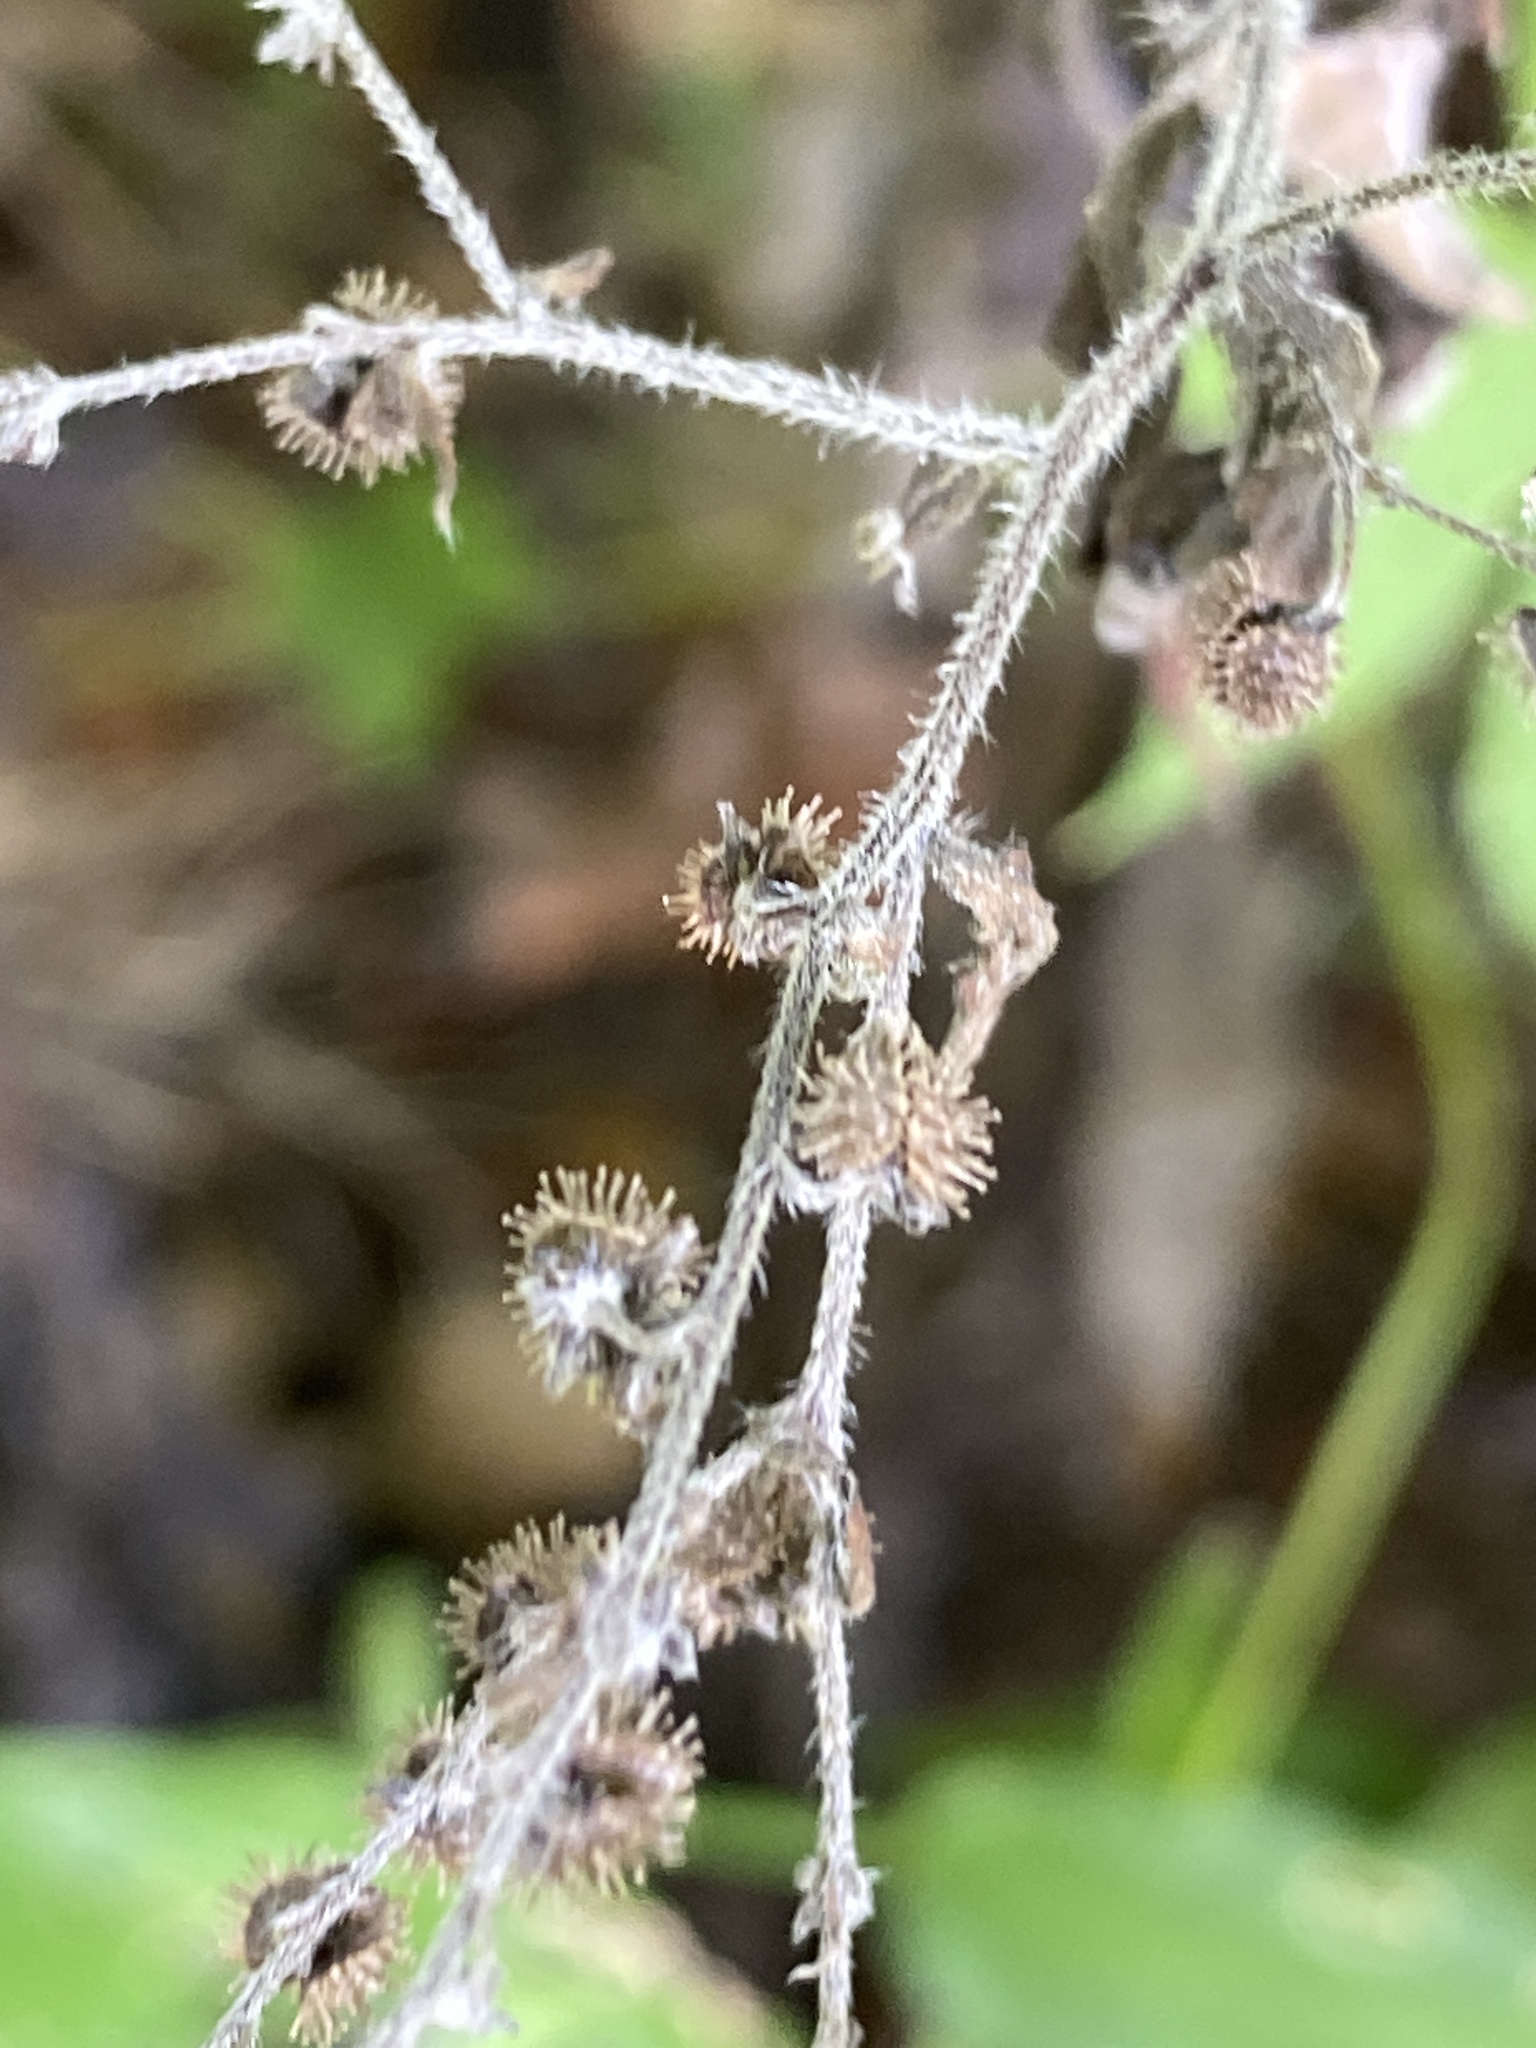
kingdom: Plantae
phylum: Tracheophyta
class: Magnoliopsida
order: Boraginales
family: Boraginaceae
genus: Hackelia
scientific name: Hackelia virginiana
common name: Beggar's-lice
